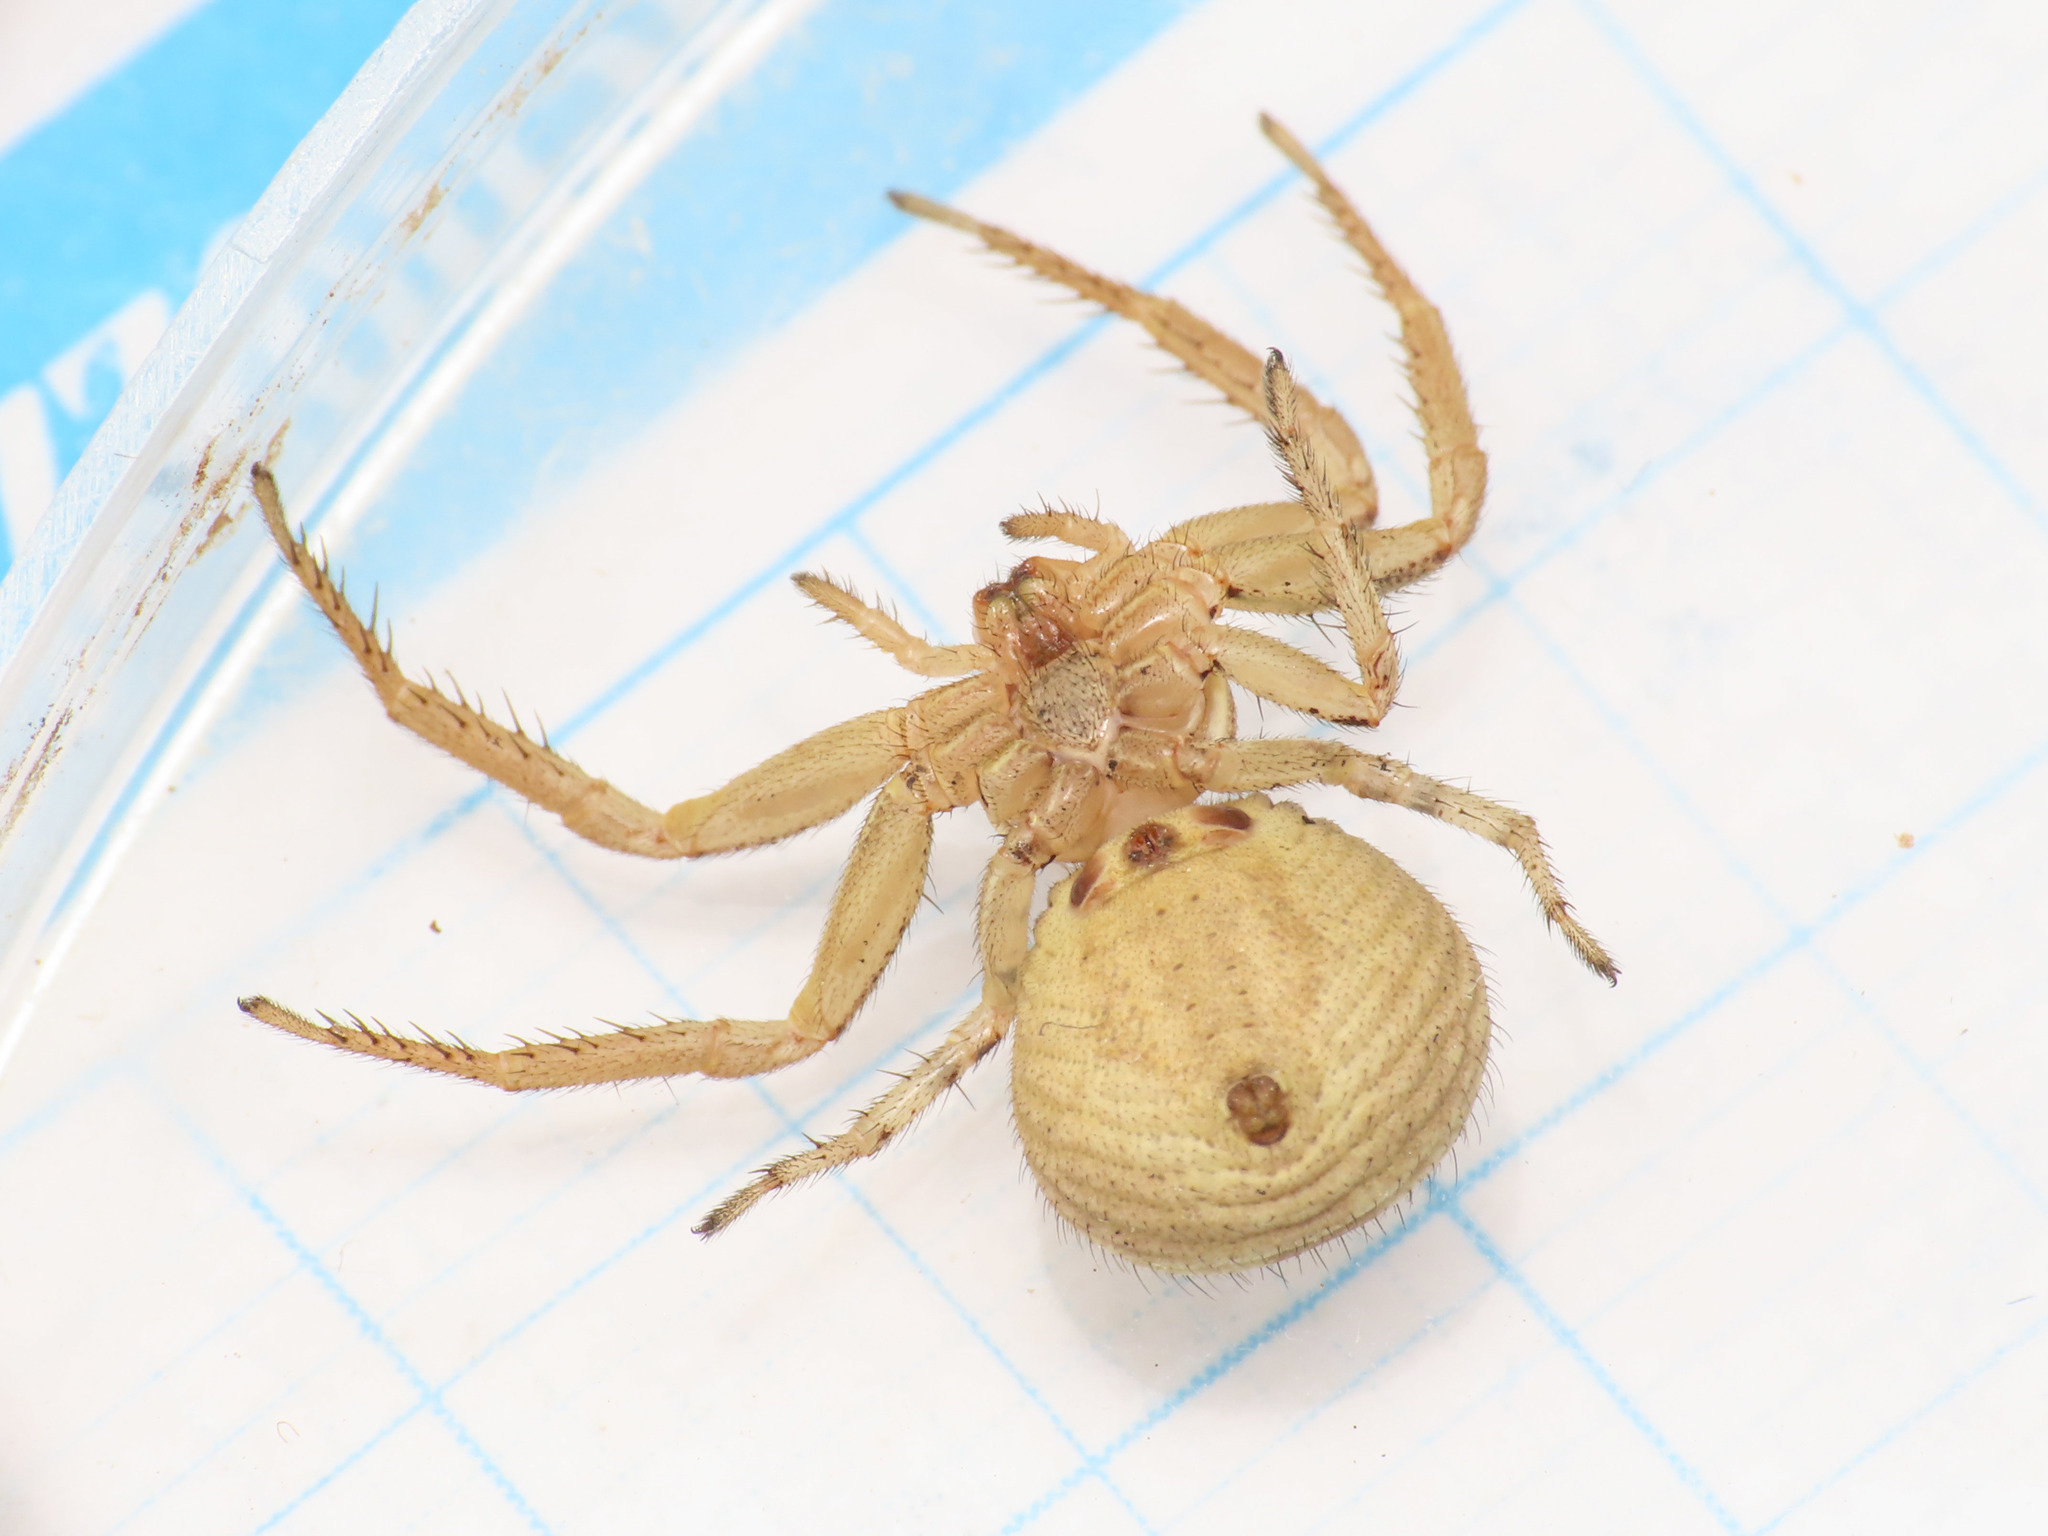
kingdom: Animalia
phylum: Arthropoda
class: Arachnida
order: Araneae
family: Thomisidae
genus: Xysticus
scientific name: Xysticus kochi
